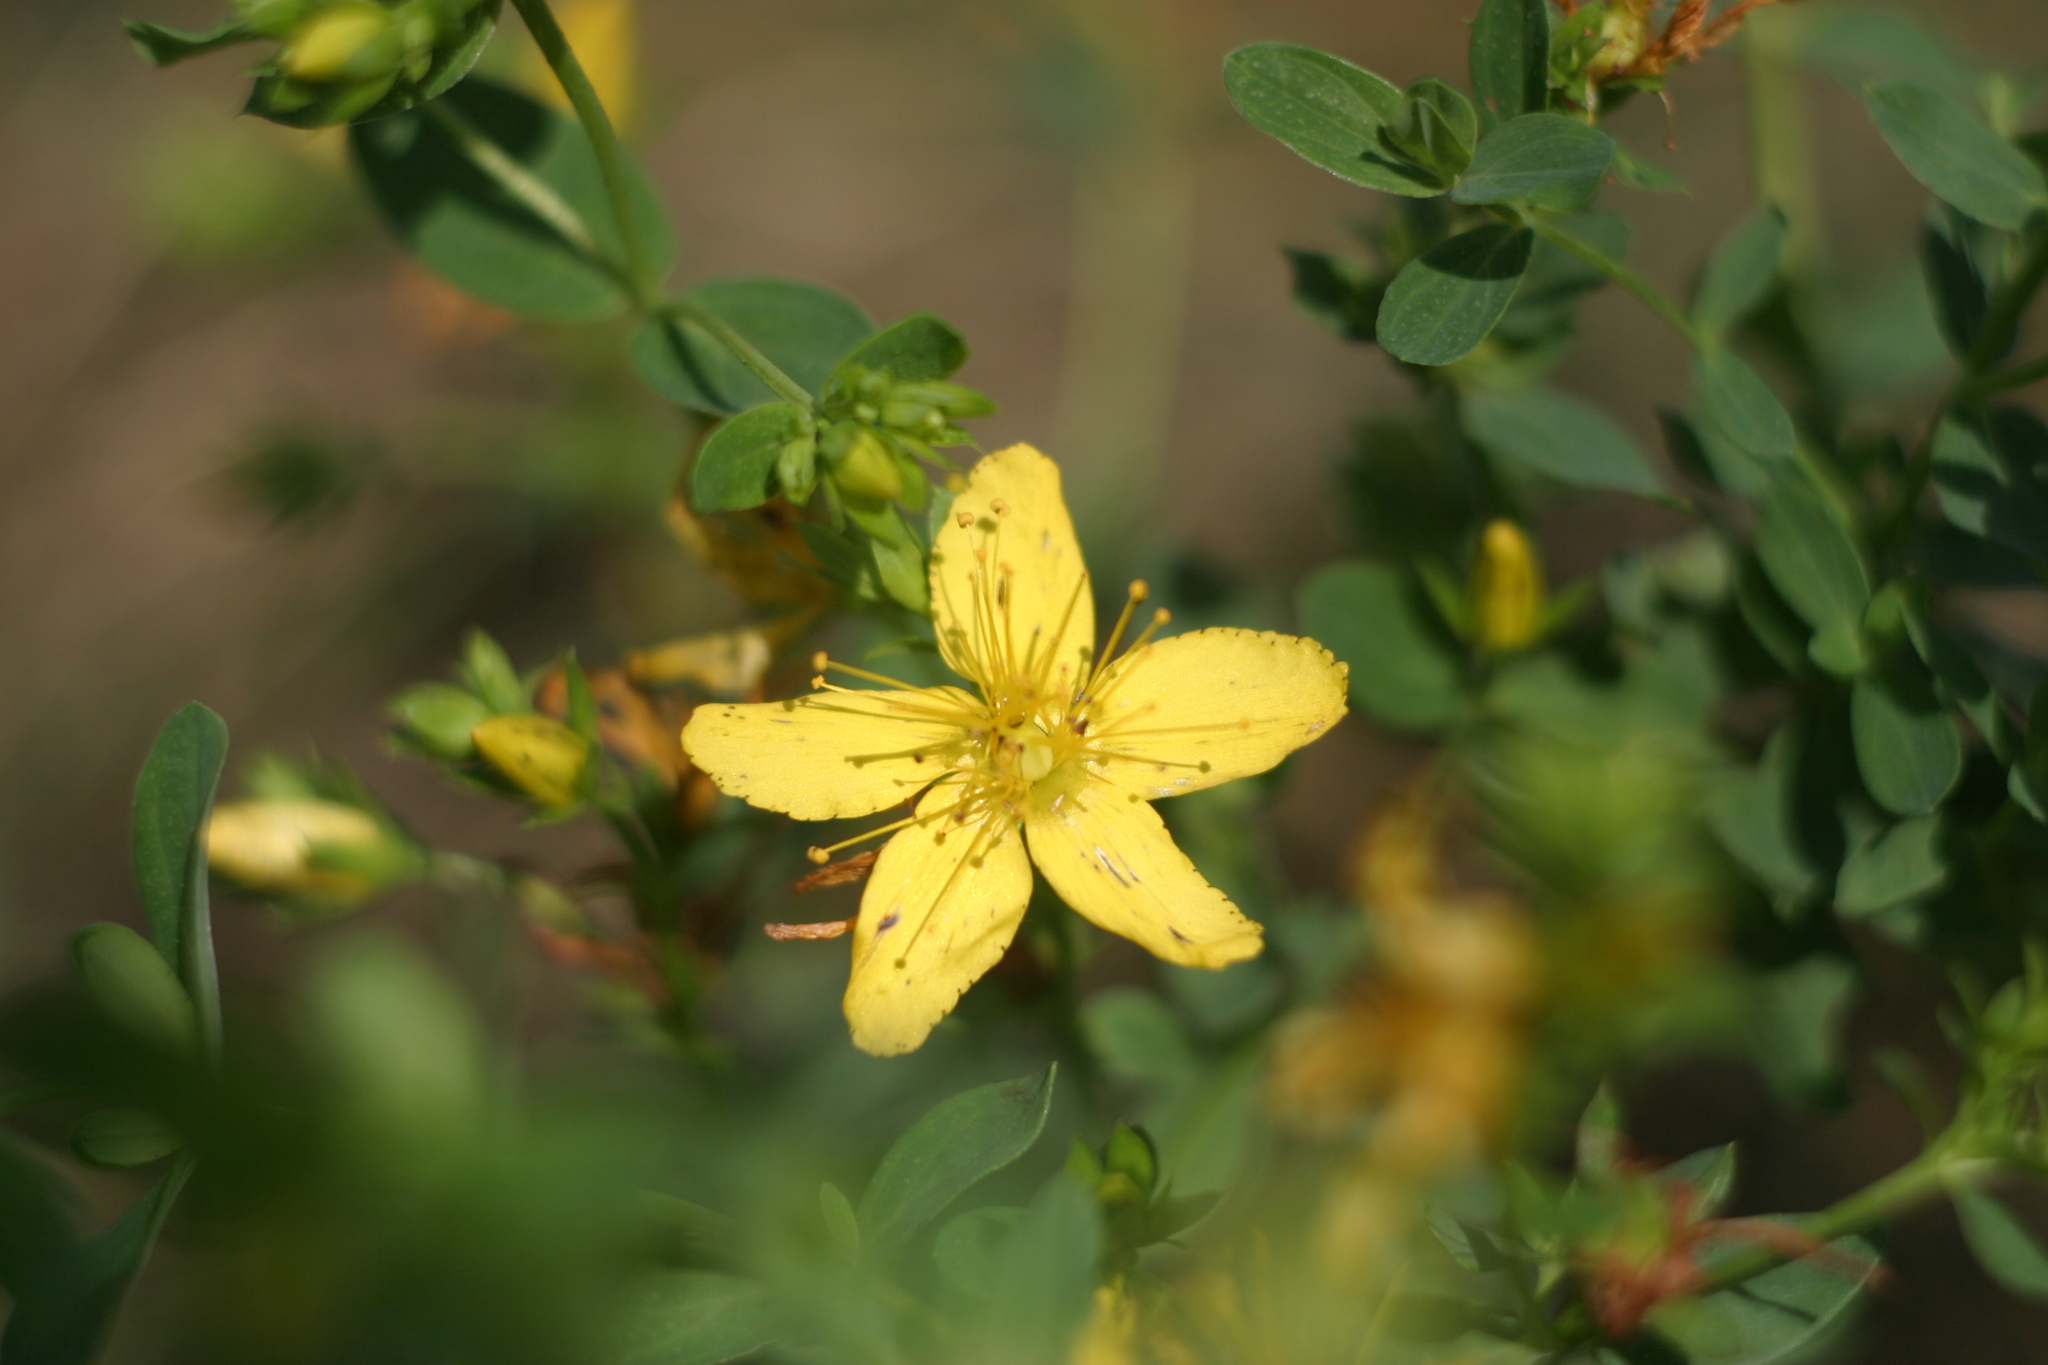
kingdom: Plantae
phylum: Tracheophyta
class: Magnoliopsida
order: Malpighiales
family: Hypericaceae
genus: Hypericum
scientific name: Hypericum perforatum
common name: Common st. johnswort
